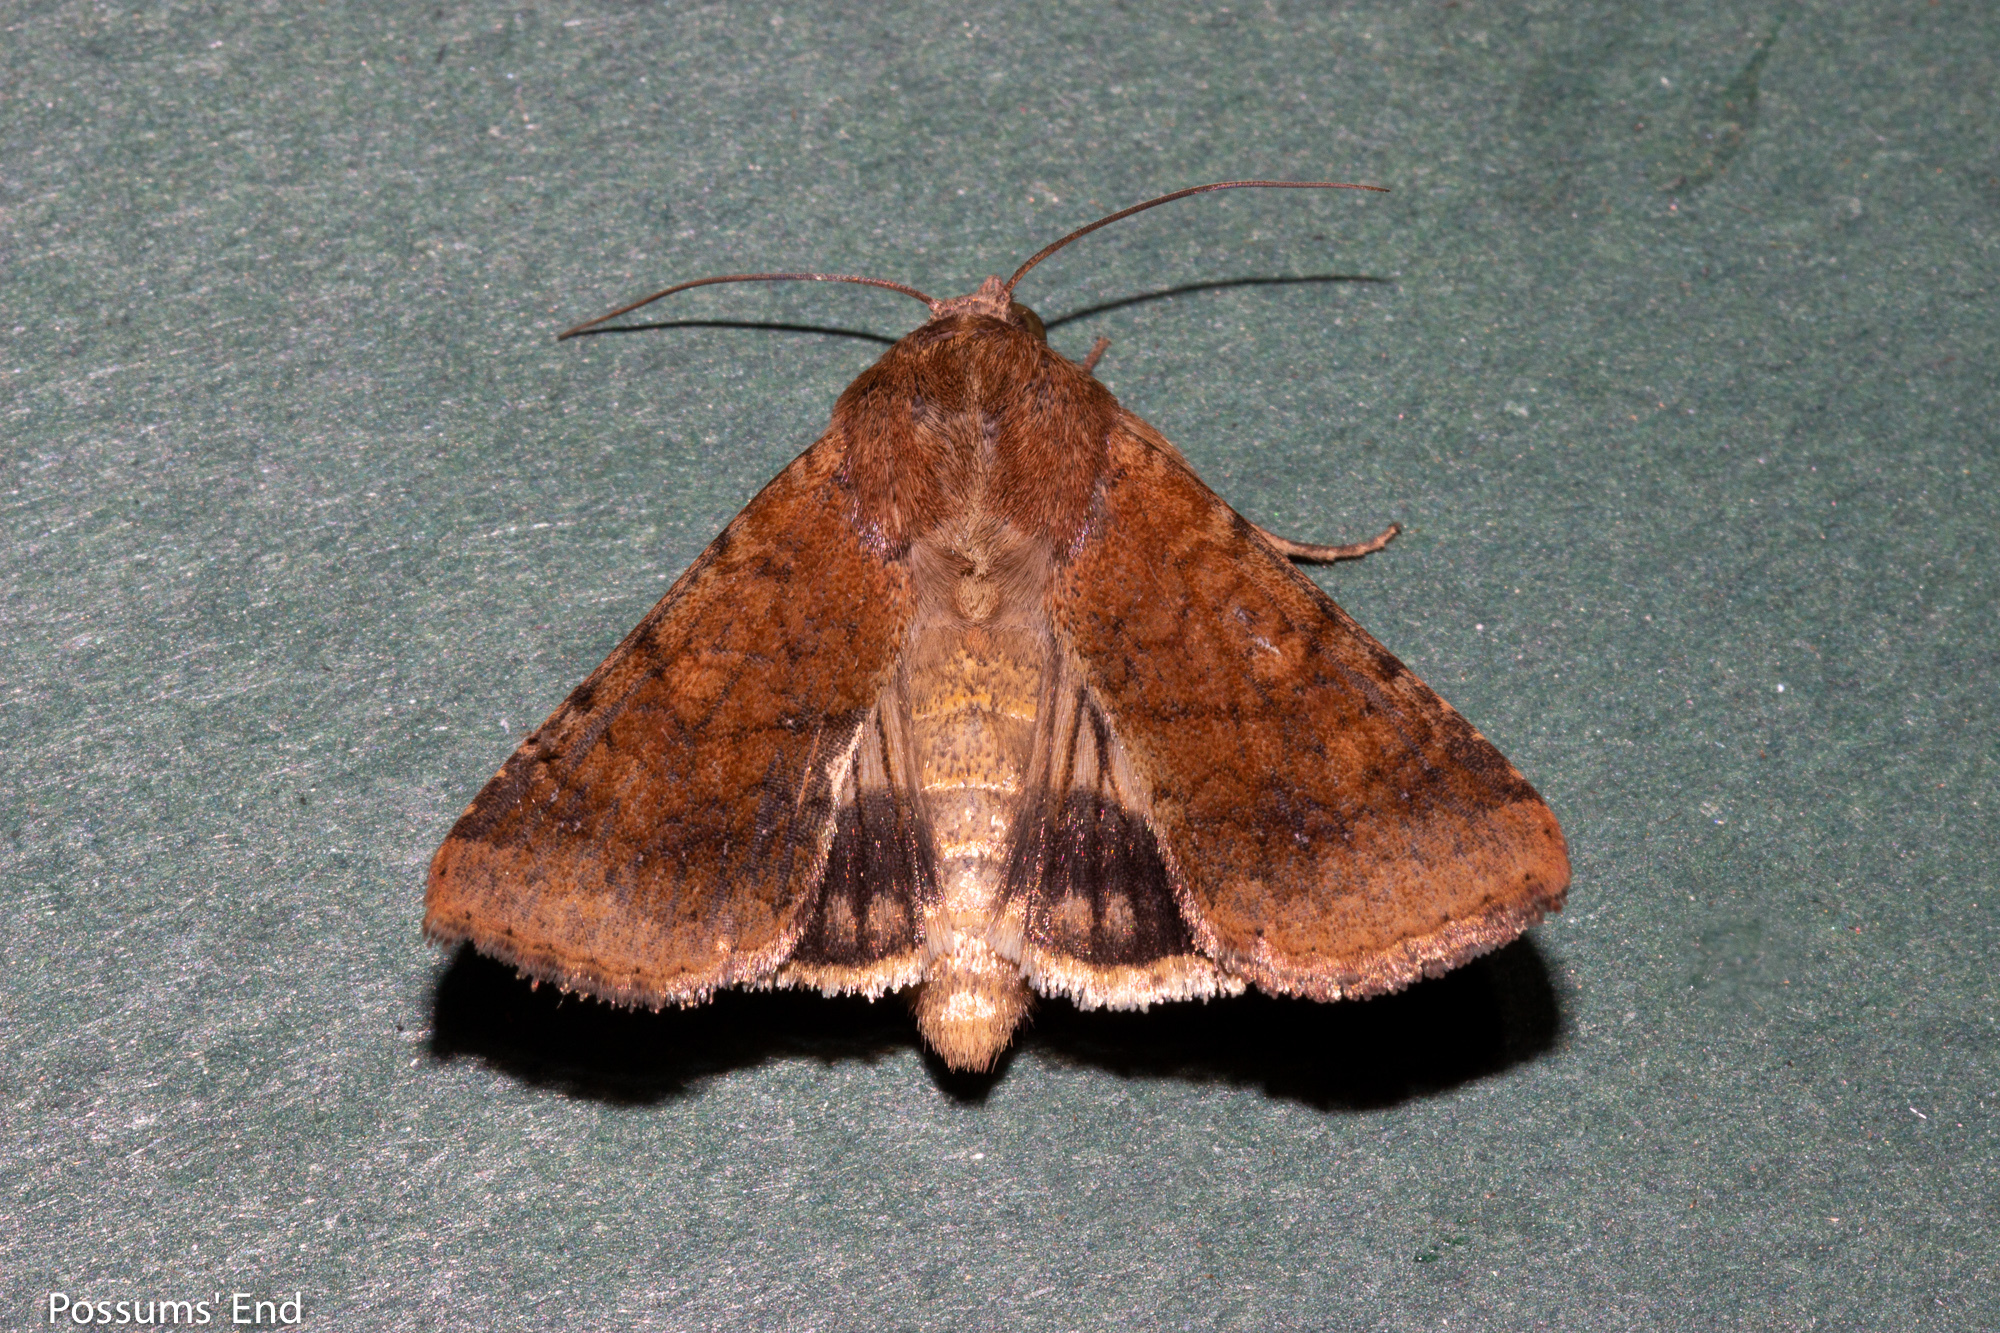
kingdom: Animalia
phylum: Arthropoda
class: Insecta
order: Lepidoptera
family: Noctuidae
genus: Helicoverpa
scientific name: Helicoverpa armigera
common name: Cotton bollworm
